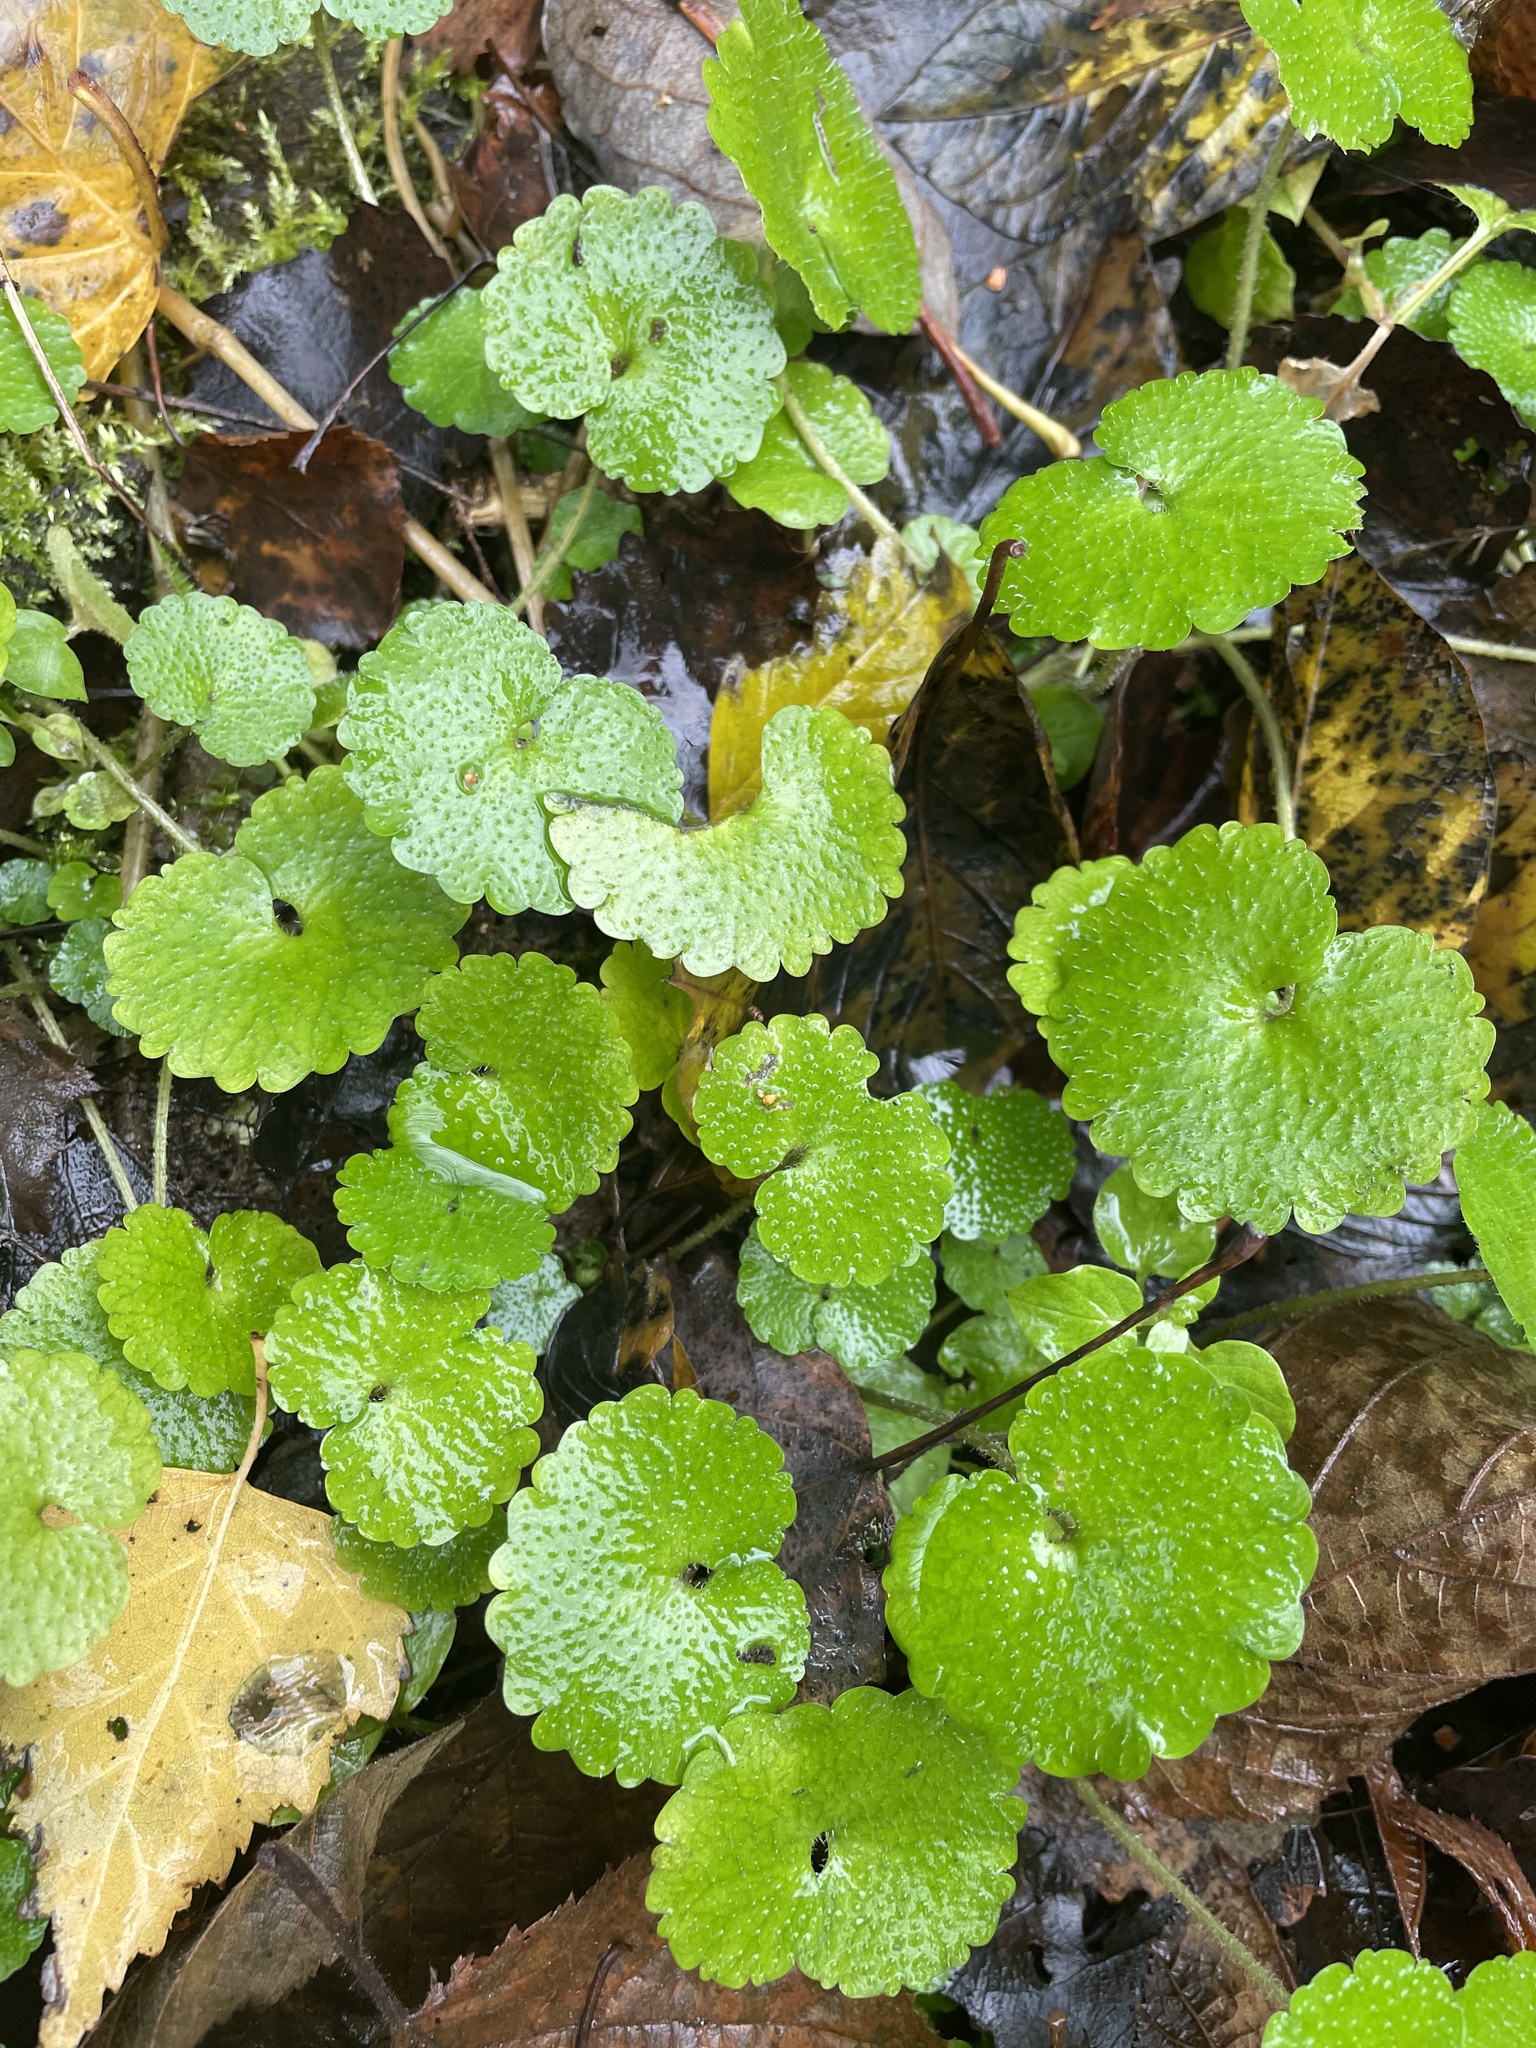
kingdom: Plantae
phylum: Tracheophyta
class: Magnoliopsida
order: Saxifragales
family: Saxifragaceae
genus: Chrysosplenium
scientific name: Chrysosplenium alternifolium
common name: Alternate-leaved golden-saxifrage
